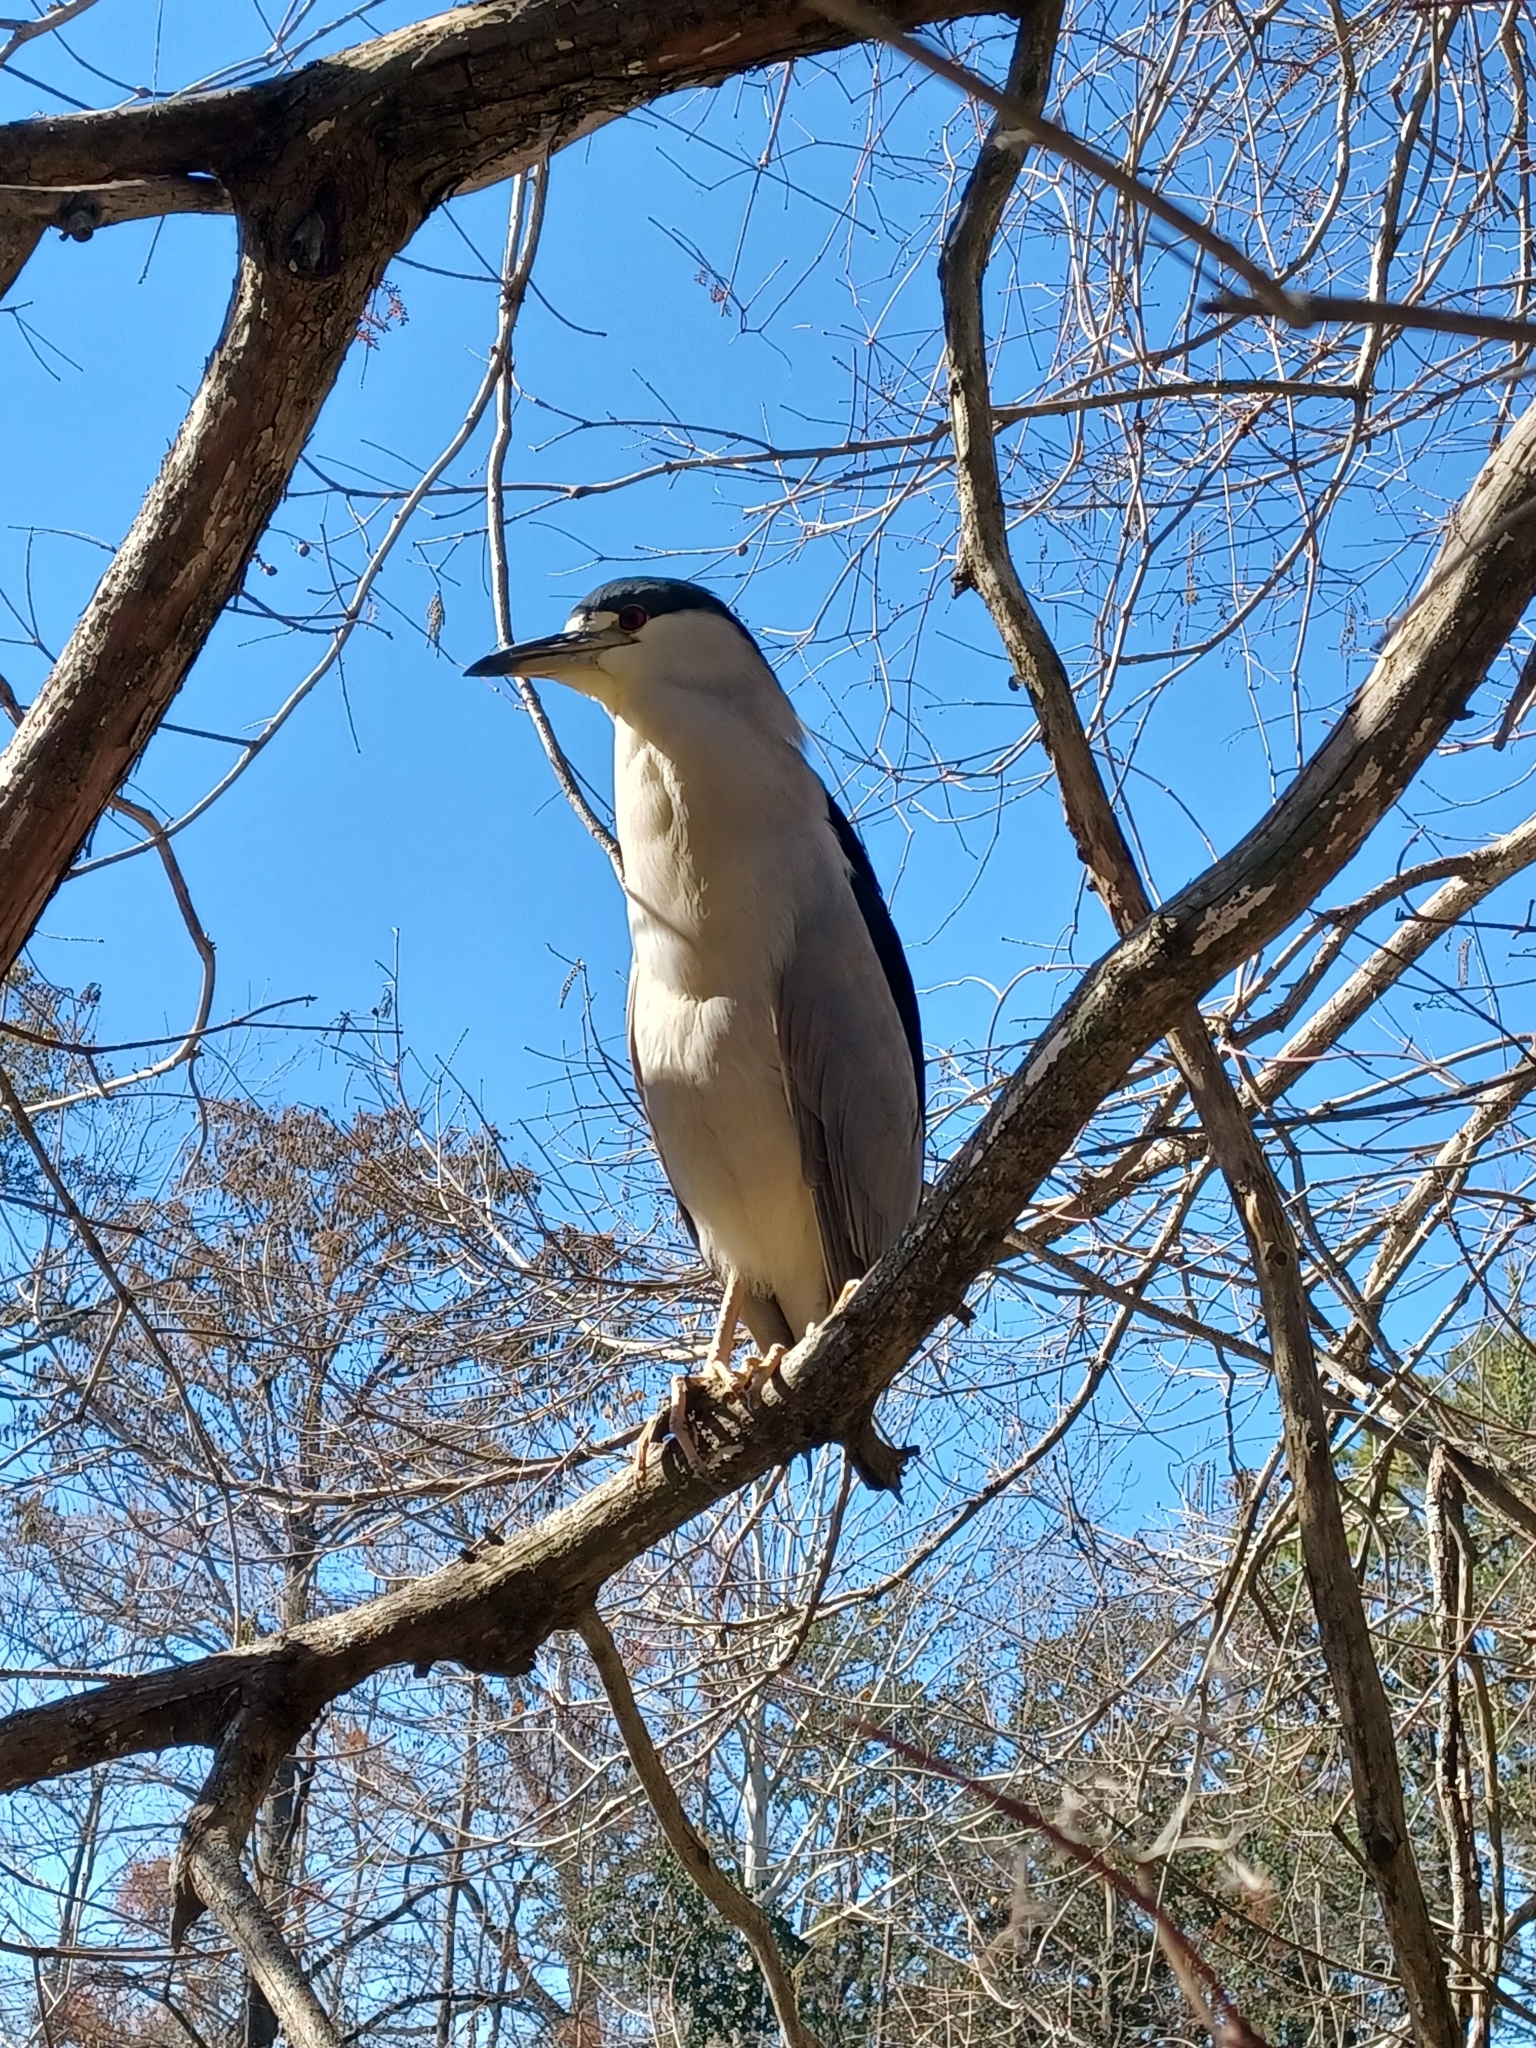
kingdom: Animalia
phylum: Chordata
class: Aves
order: Pelecaniformes
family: Ardeidae
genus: Nycticorax
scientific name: Nycticorax nycticorax
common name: Black-crowned night heron
